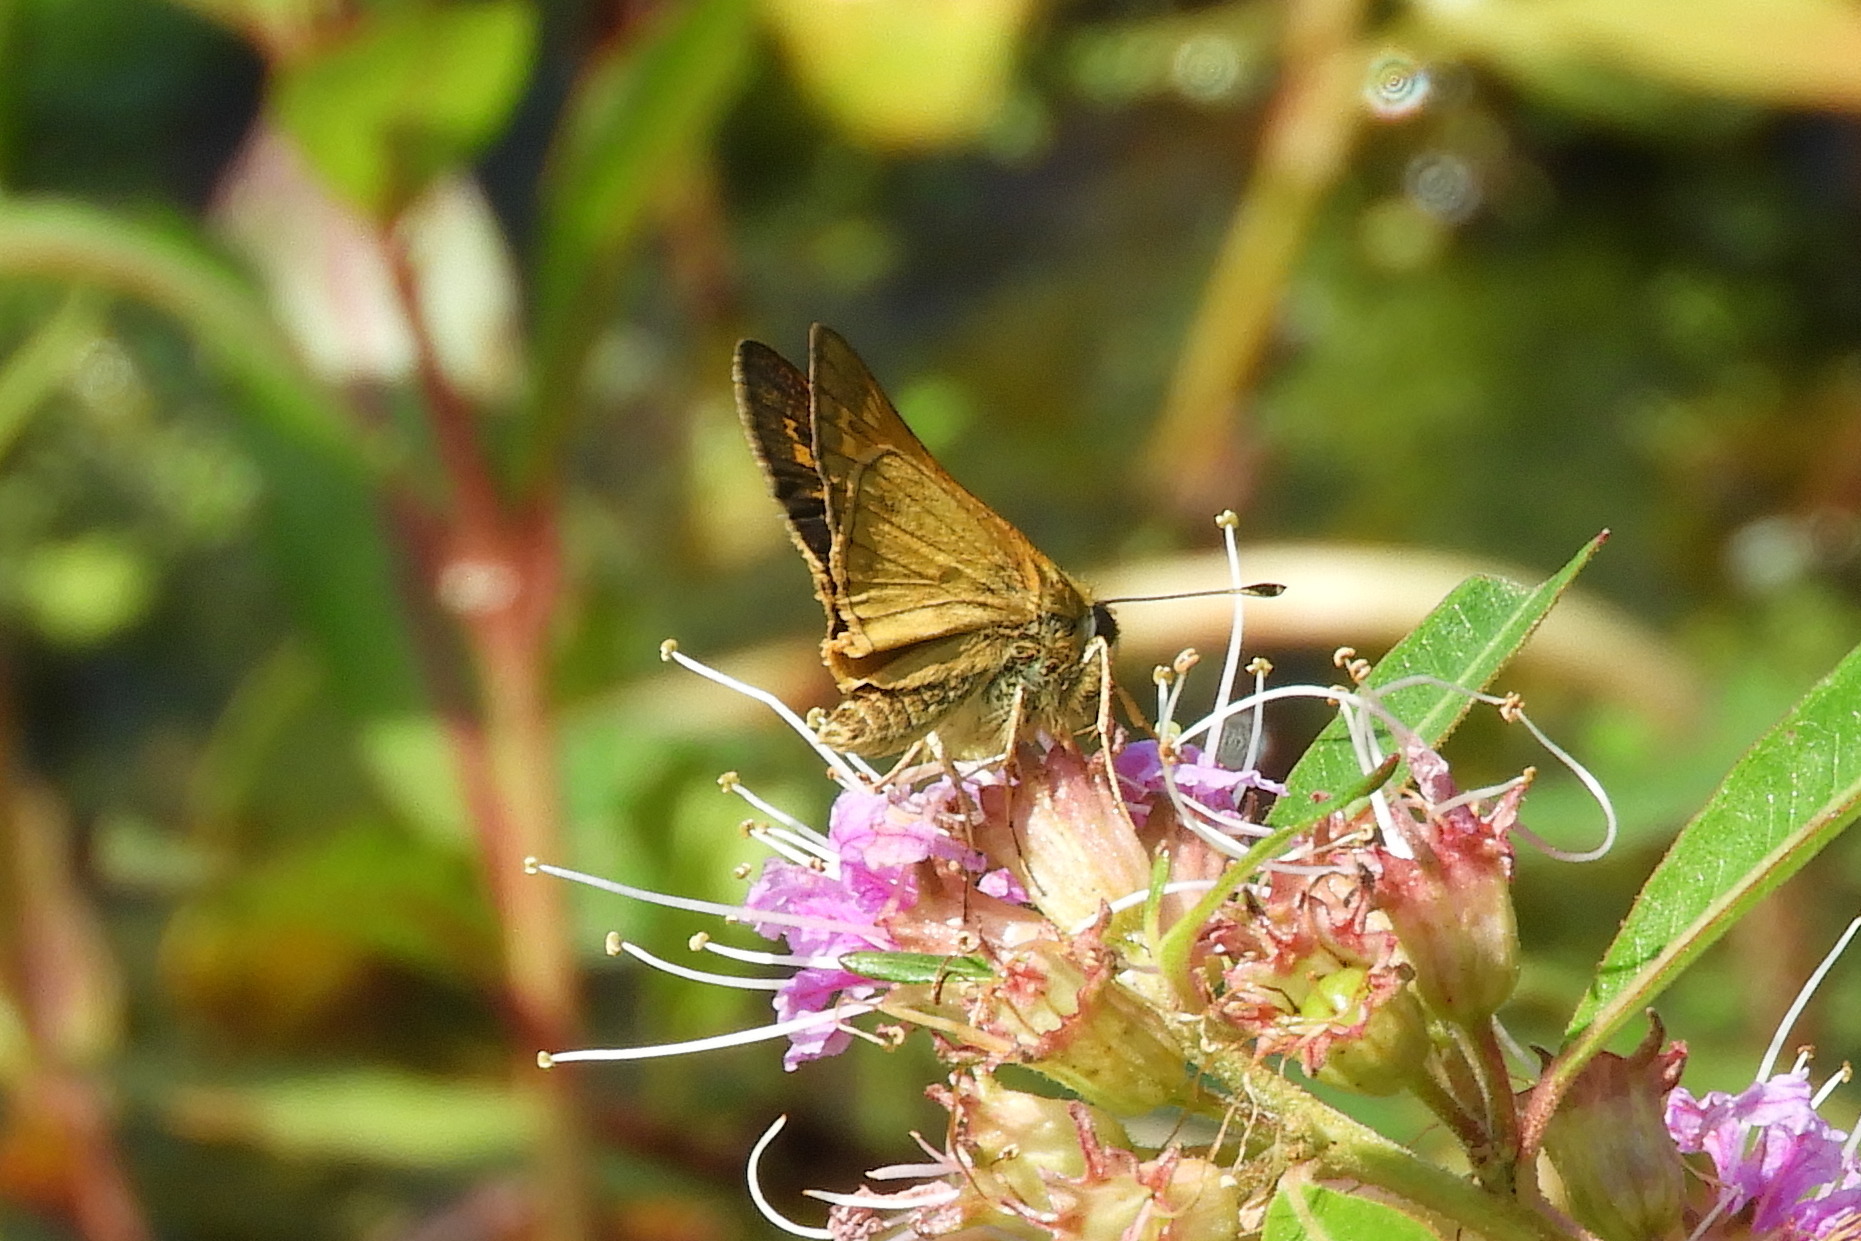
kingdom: Animalia
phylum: Arthropoda
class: Insecta
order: Lepidoptera
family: Hesperiidae
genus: Atalopedes
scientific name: Atalopedes
